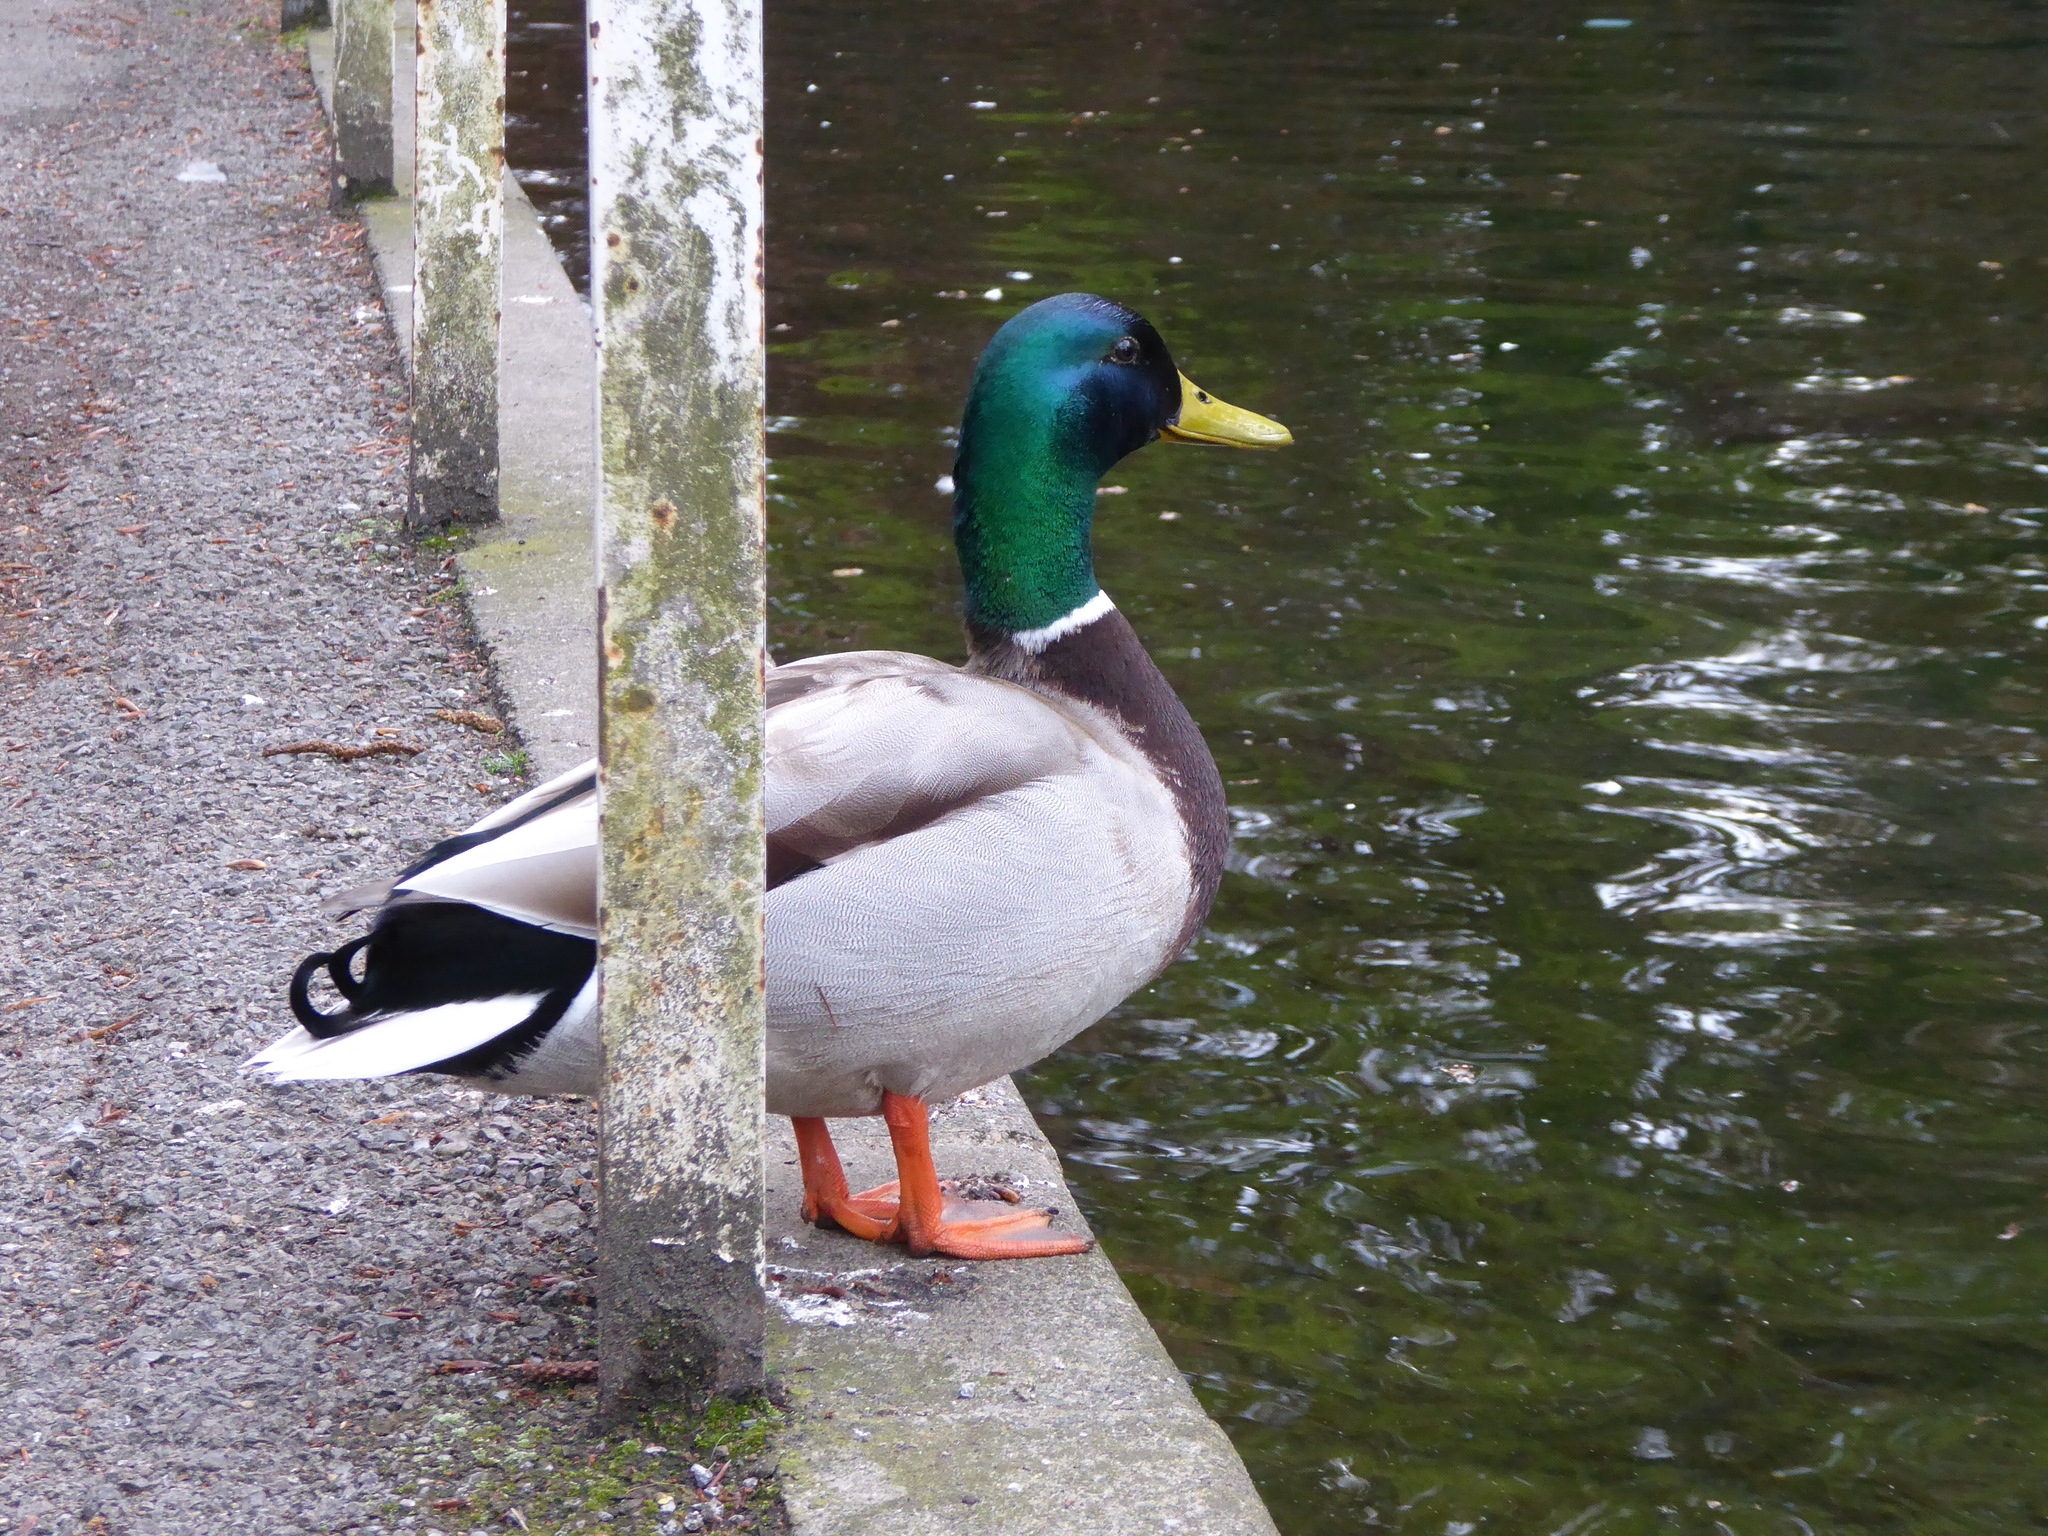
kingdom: Animalia
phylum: Chordata
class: Aves
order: Anseriformes
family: Anatidae
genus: Anas
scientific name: Anas platyrhynchos
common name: Mallard
